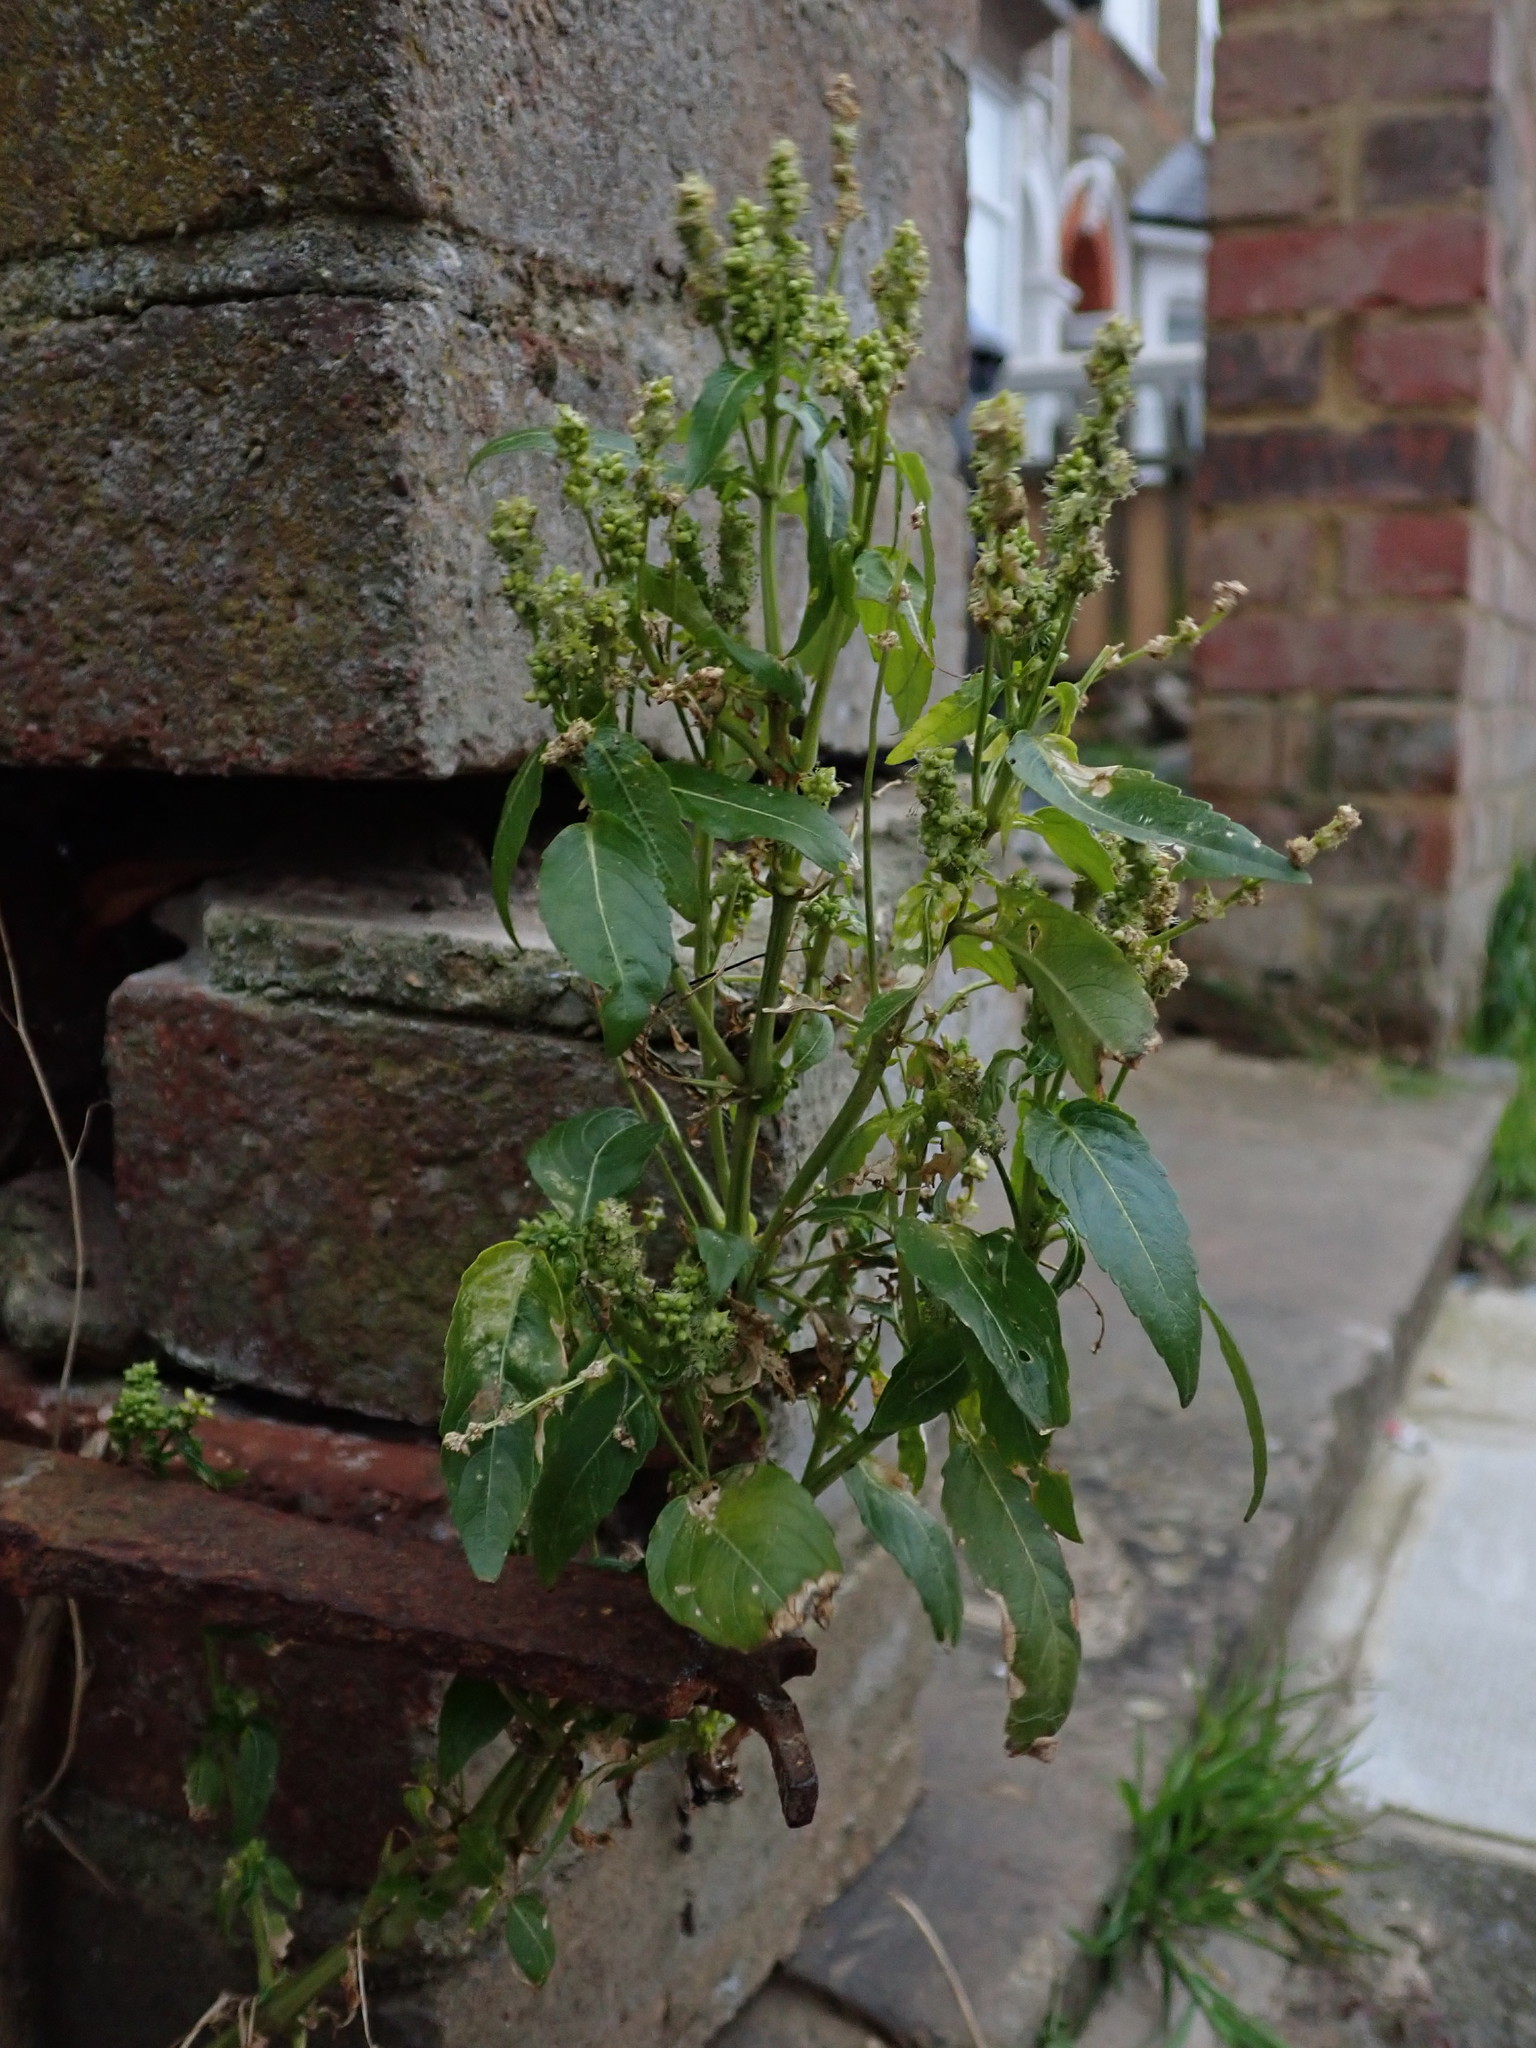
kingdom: Plantae
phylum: Tracheophyta
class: Magnoliopsida
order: Malpighiales
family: Euphorbiaceae
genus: Mercurialis
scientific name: Mercurialis annua
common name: Annual mercury
